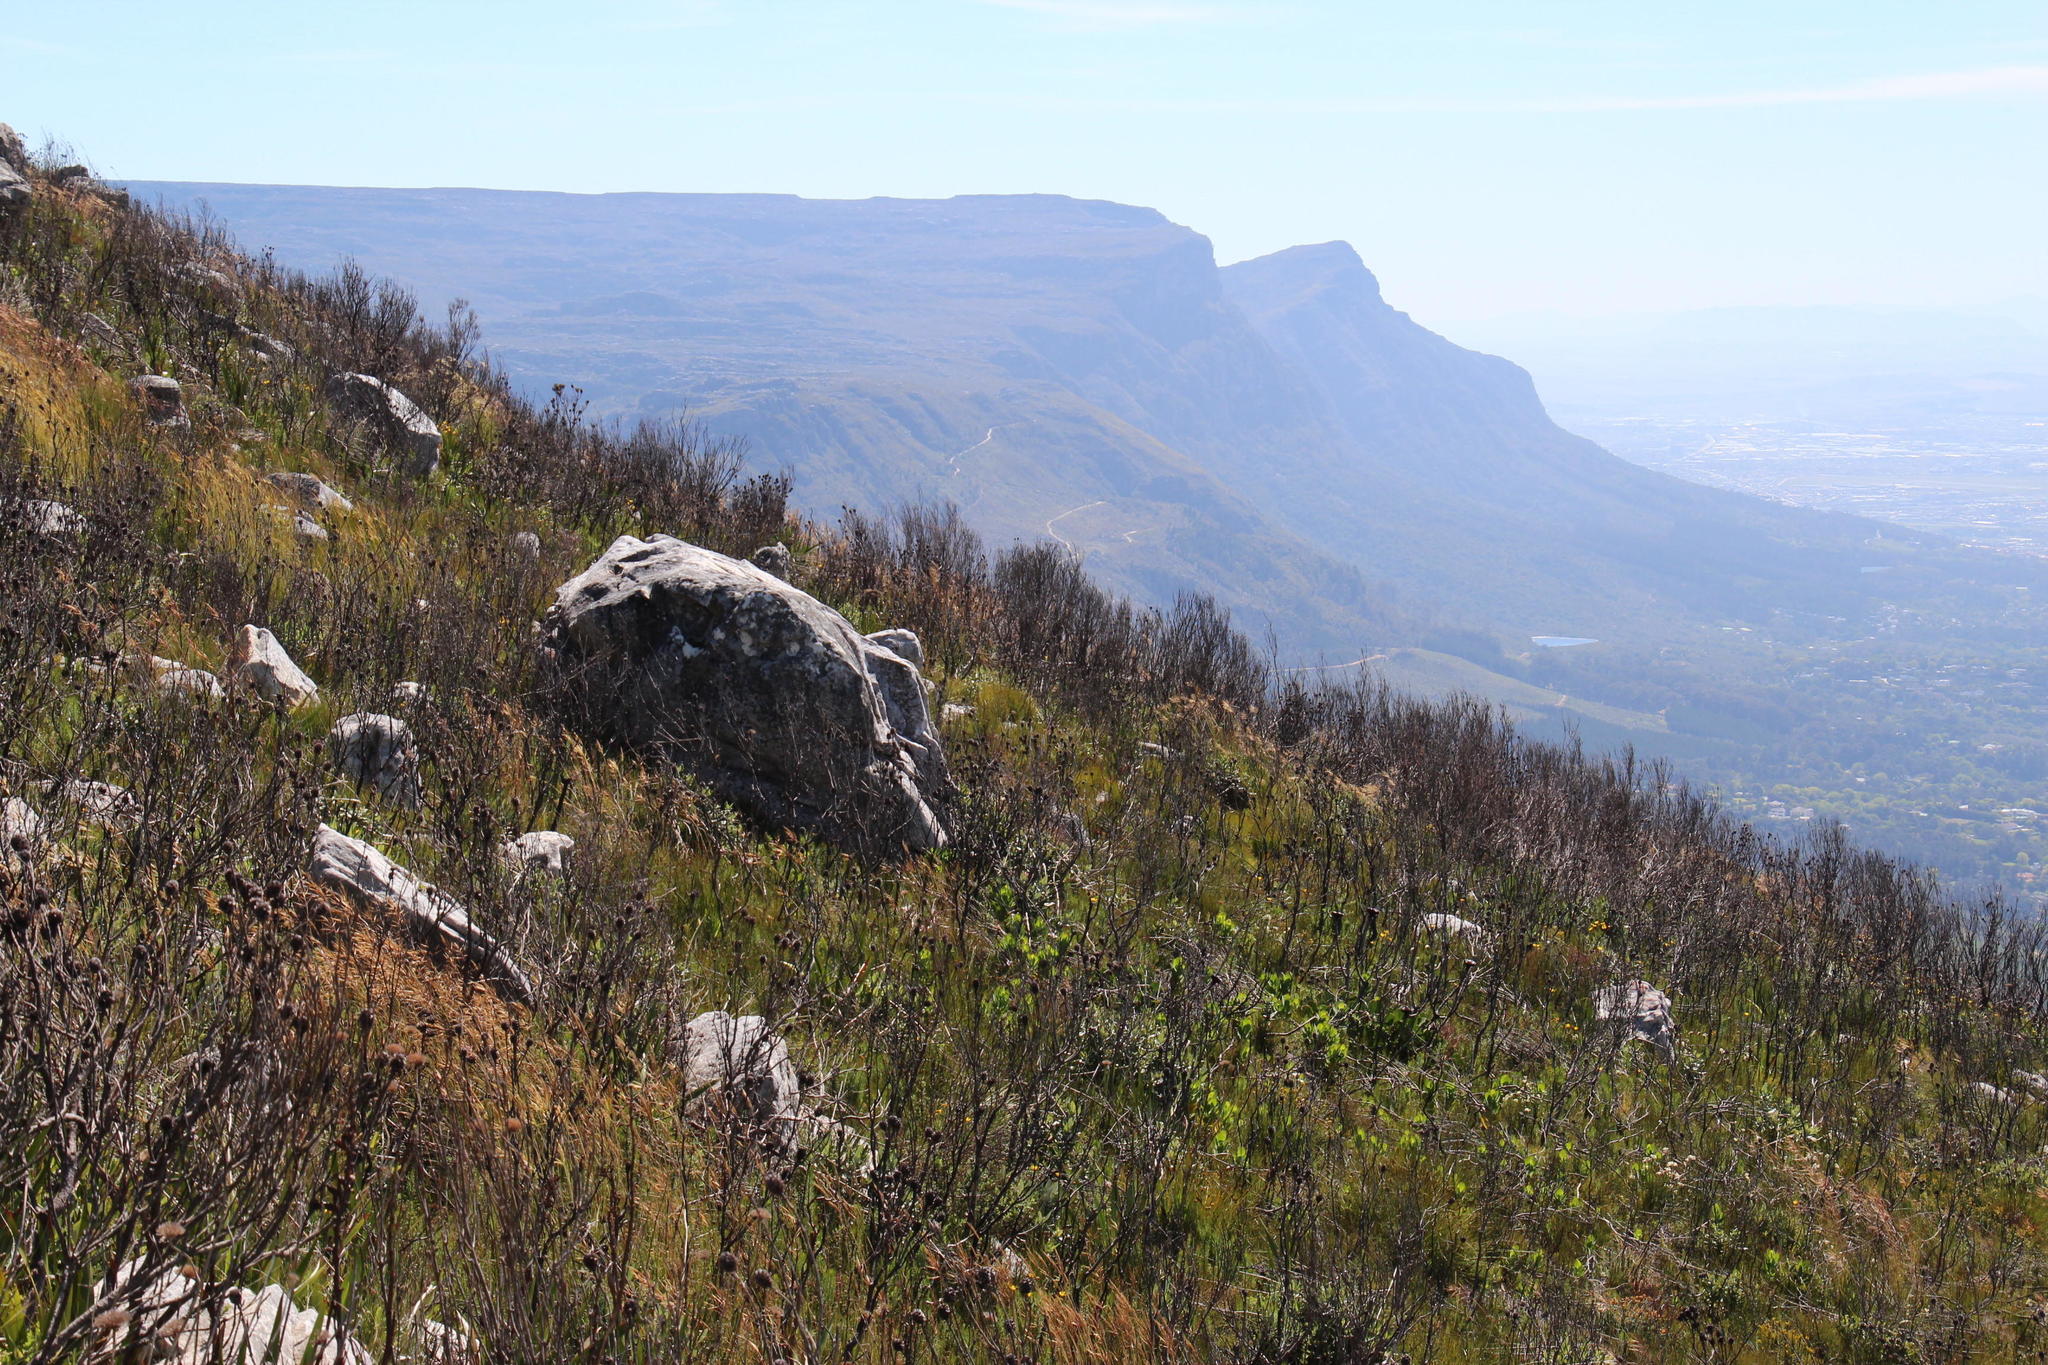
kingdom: Plantae
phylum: Tracheophyta
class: Magnoliopsida
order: Proteales
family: Proteaceae
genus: Leucadendron
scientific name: Leucadendron xanthoconus
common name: Sickle-leaf conebush
